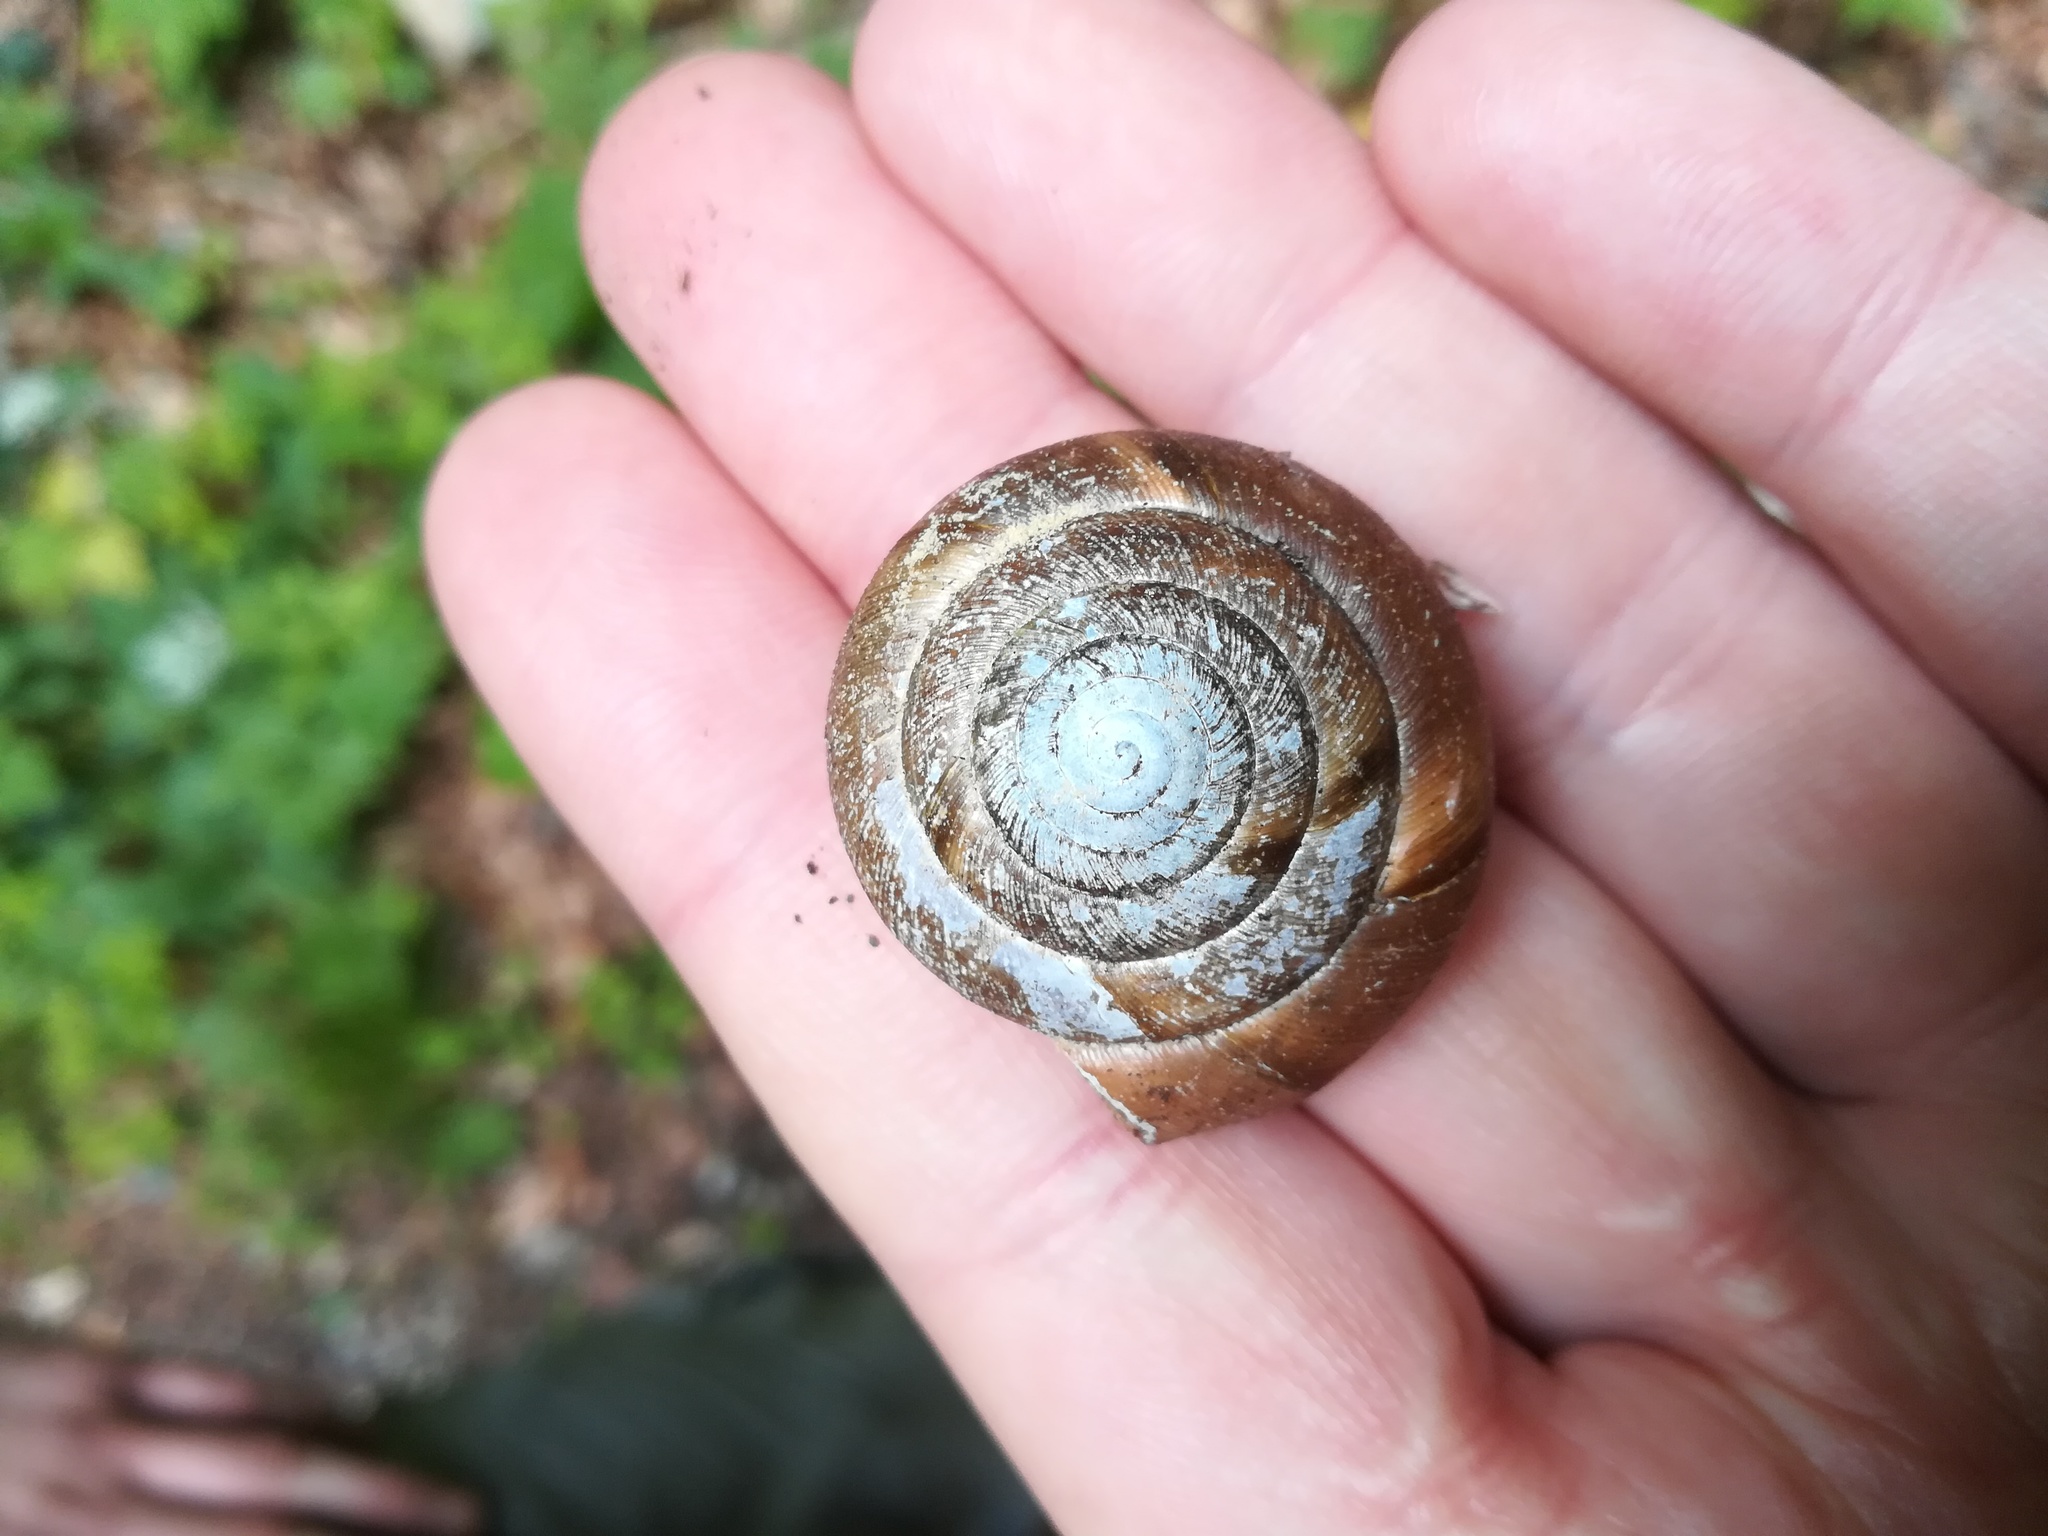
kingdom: Animalia
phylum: Mollusca
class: Gastropoda
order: Stylommatophora
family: Zonitidae
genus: Aegopis
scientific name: Aegopis verticillus
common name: Giant glass snail
